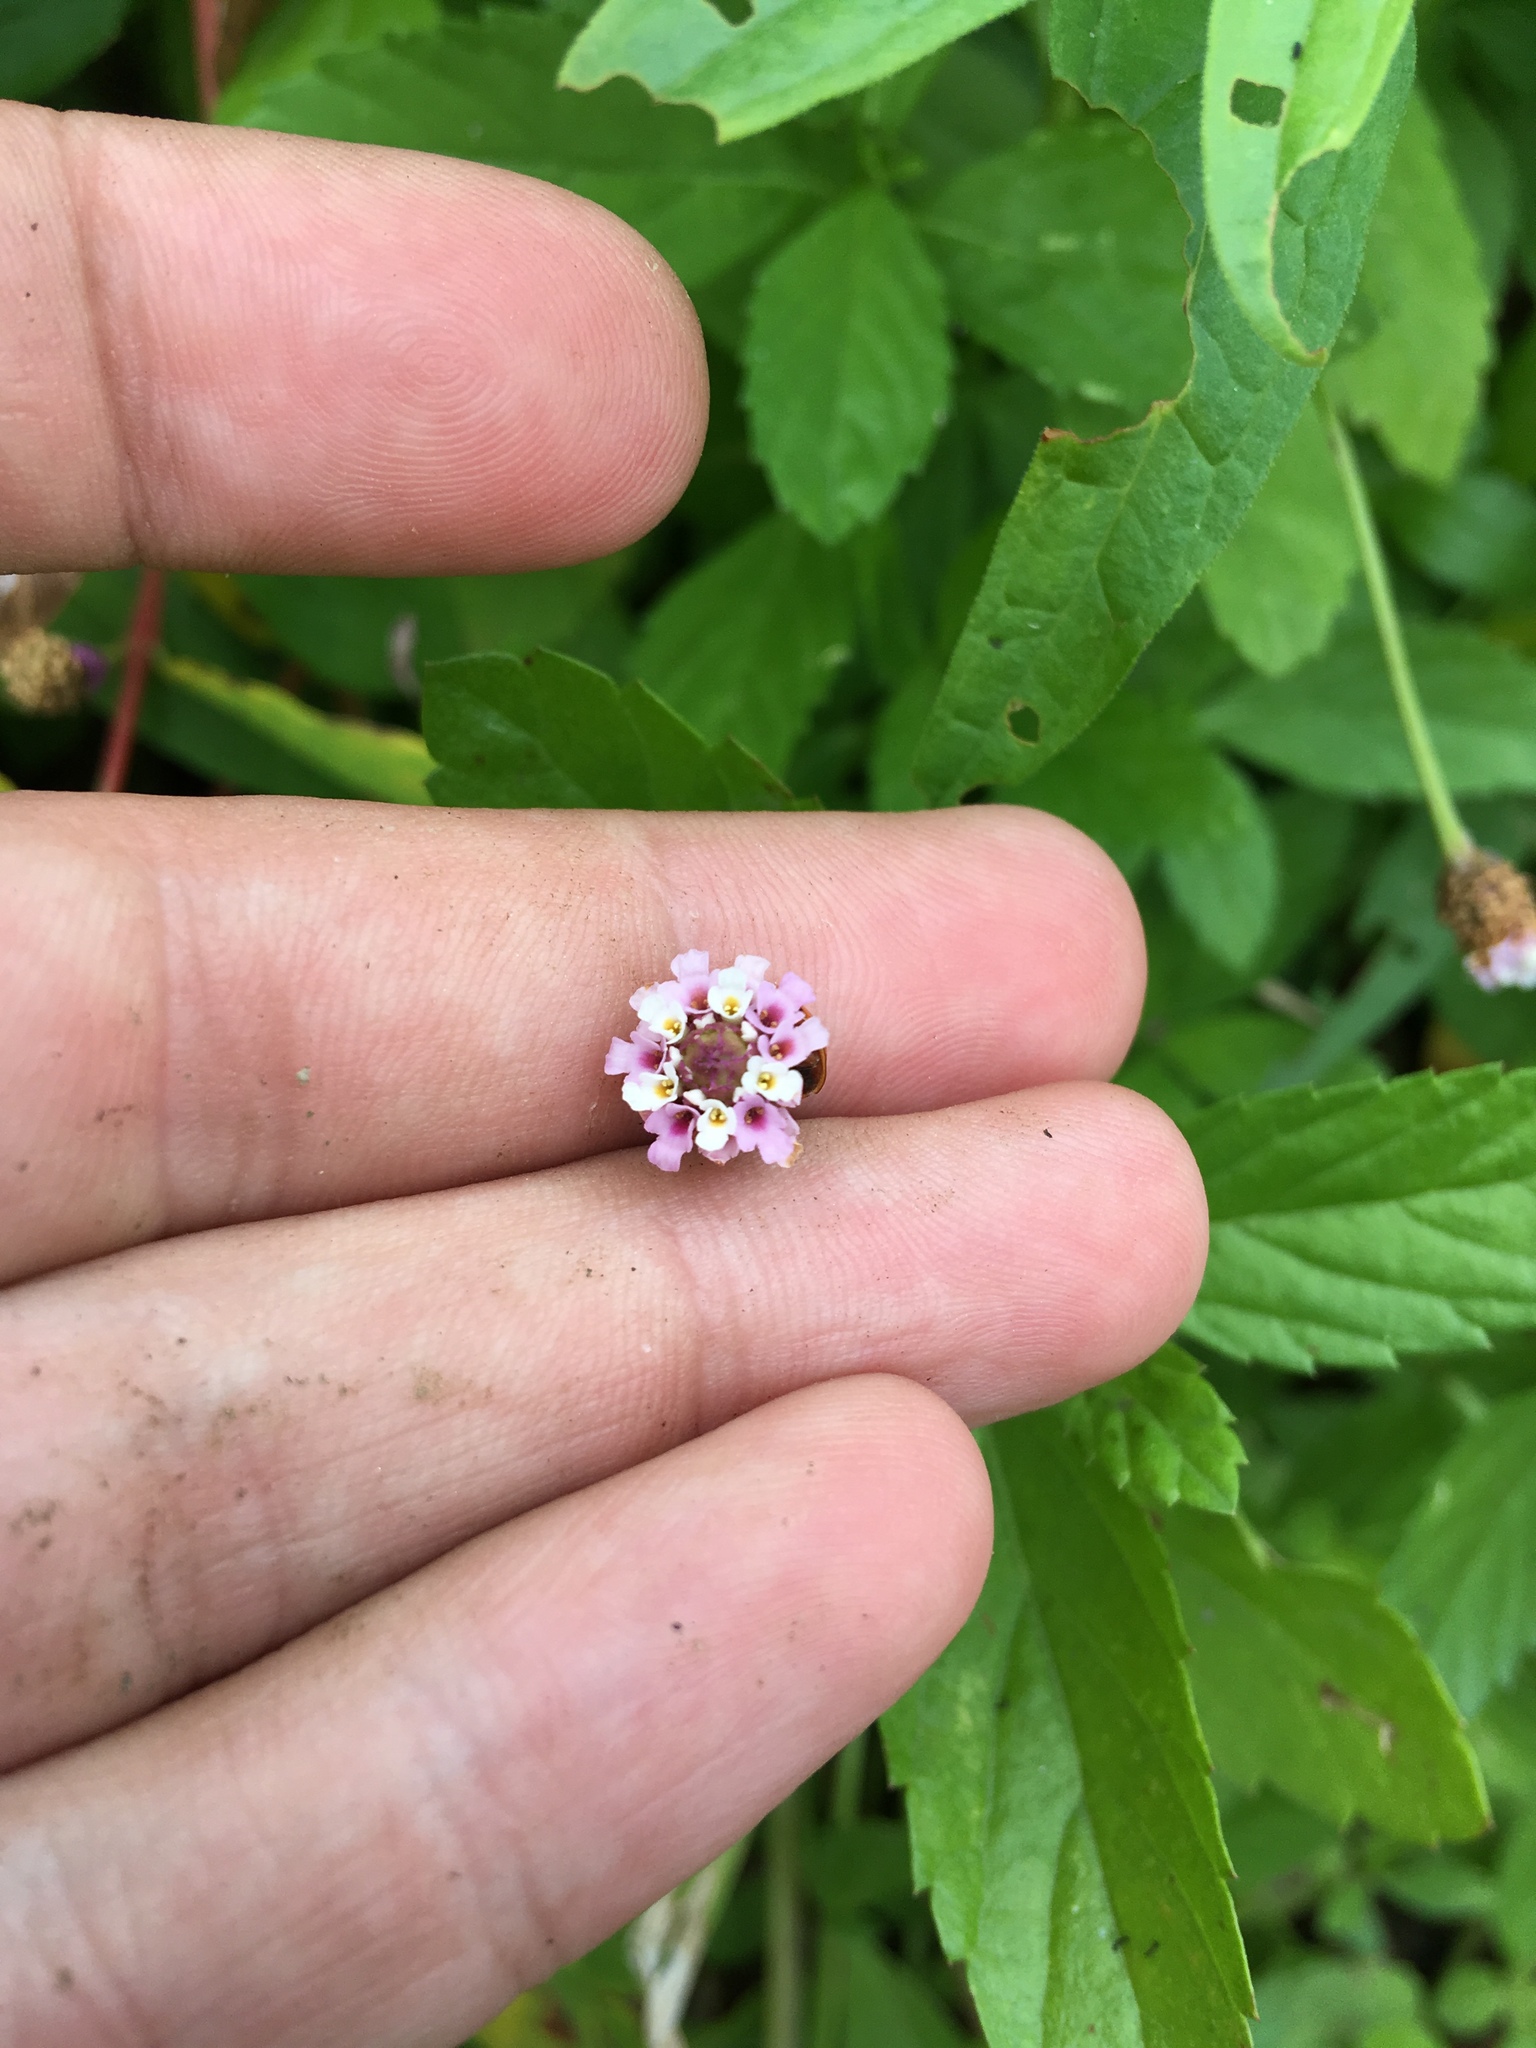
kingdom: Plantae
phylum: Tracheophyta
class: Magnoliopsida
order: Lamiales
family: Verbenaceae
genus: Phyla
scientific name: Phyla lanceolata
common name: Northern fogfruit
